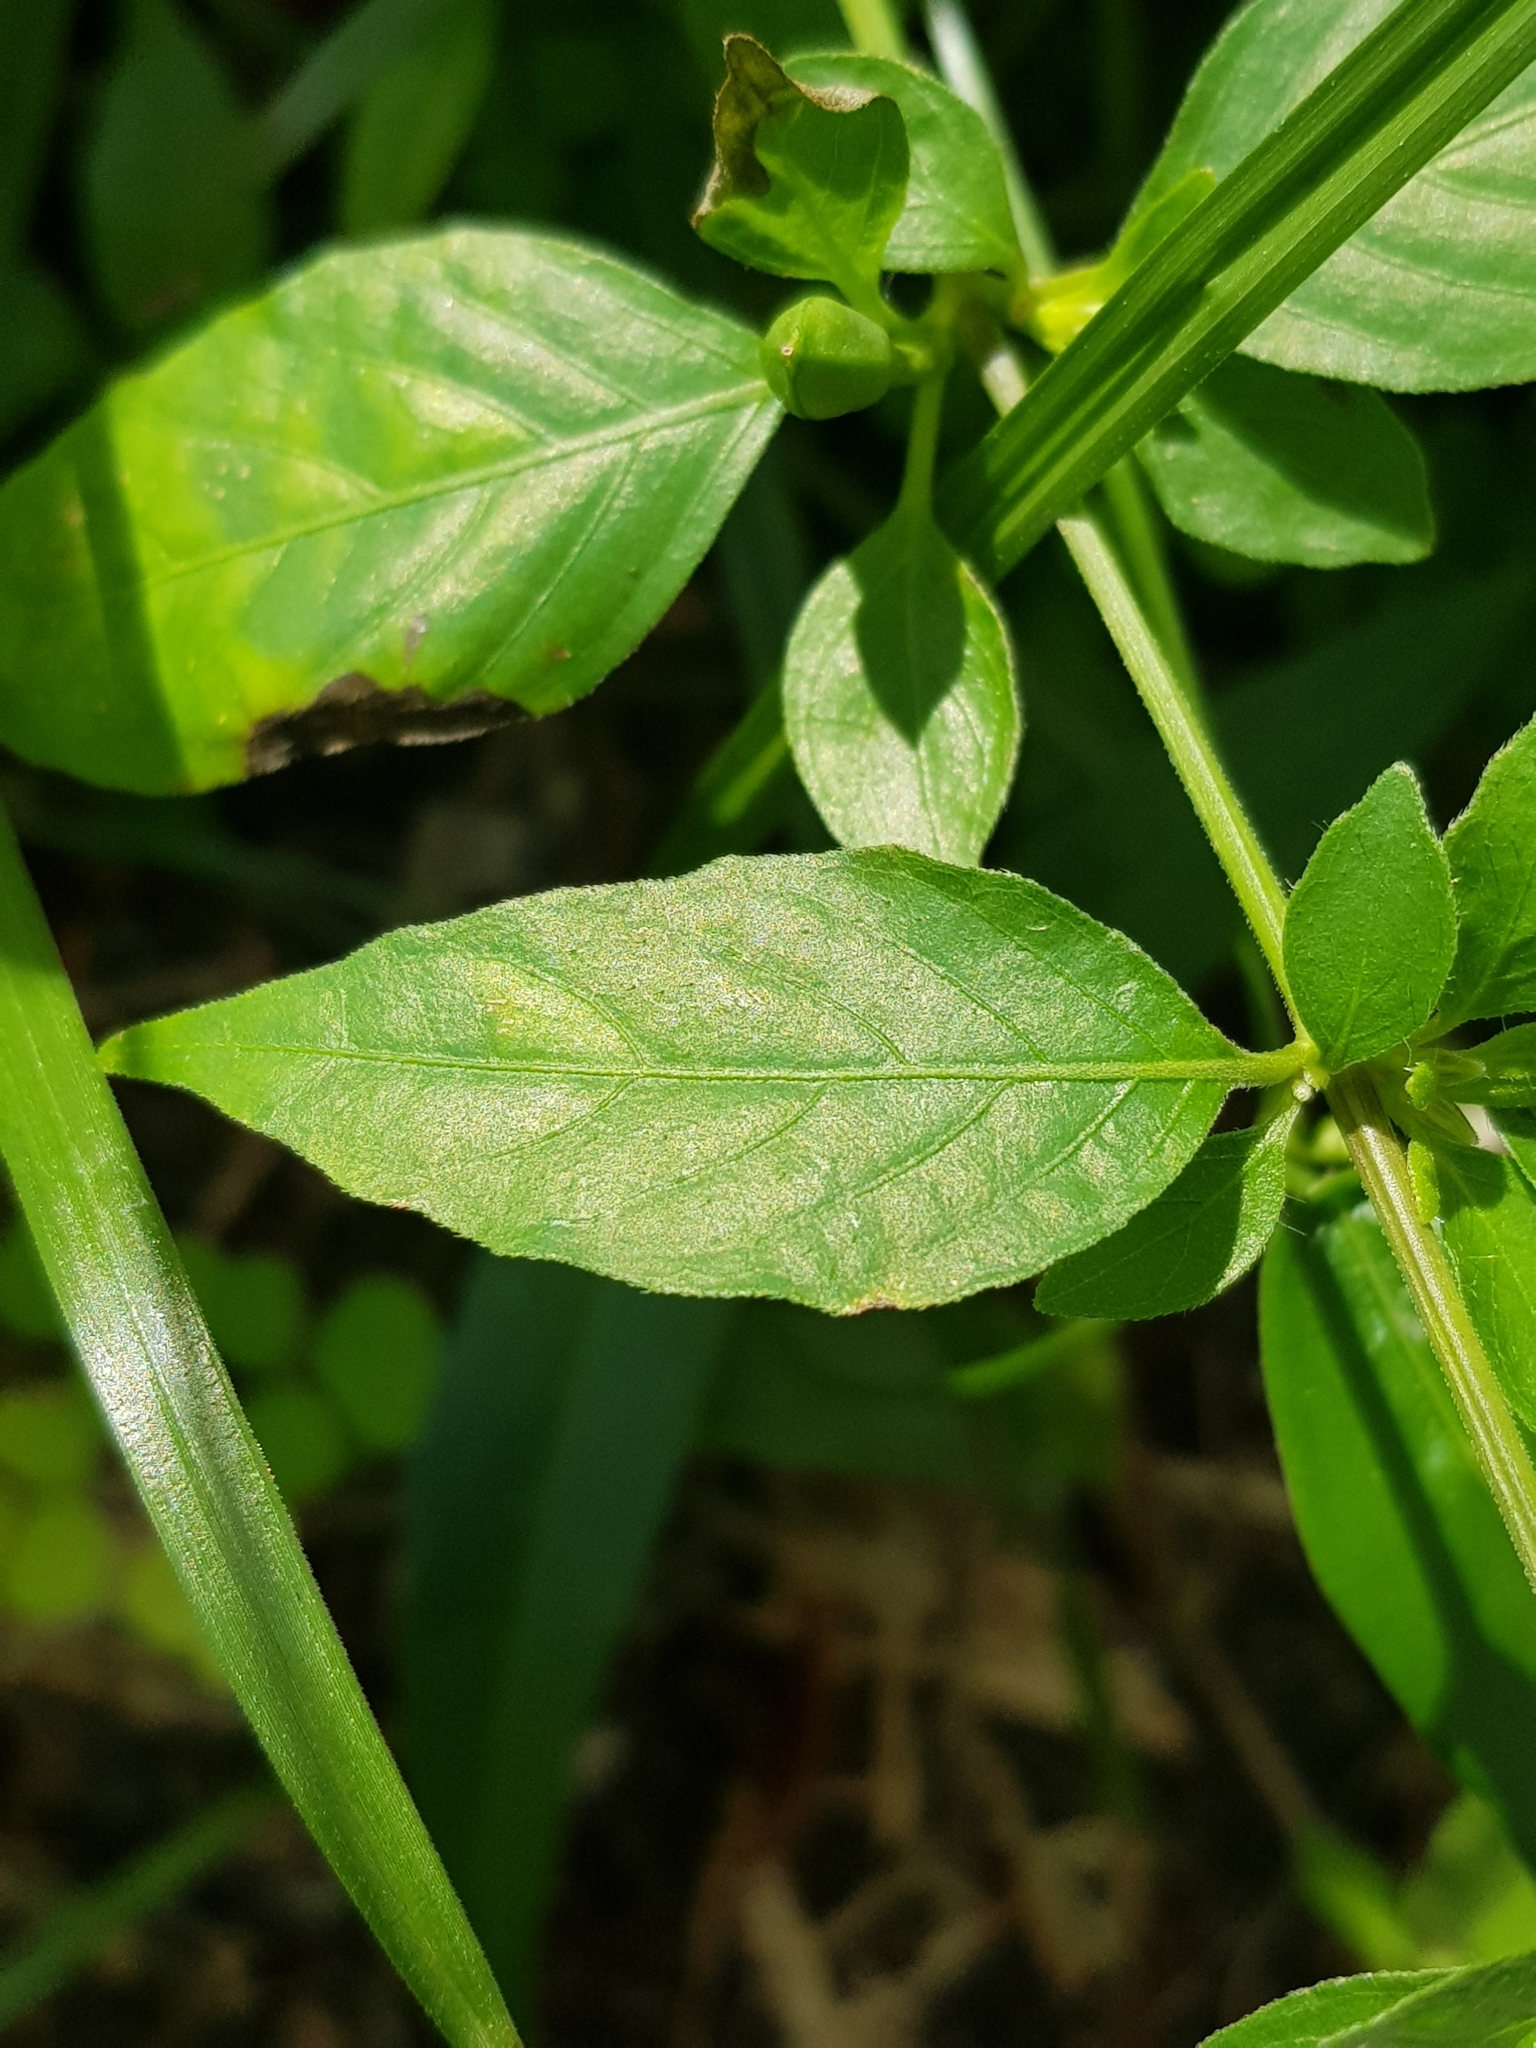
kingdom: Plantae
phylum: Tracheophyta
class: Magnoliopsida
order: Lamiales
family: Acanthaceae
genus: Ruellia
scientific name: Ruellia repens
